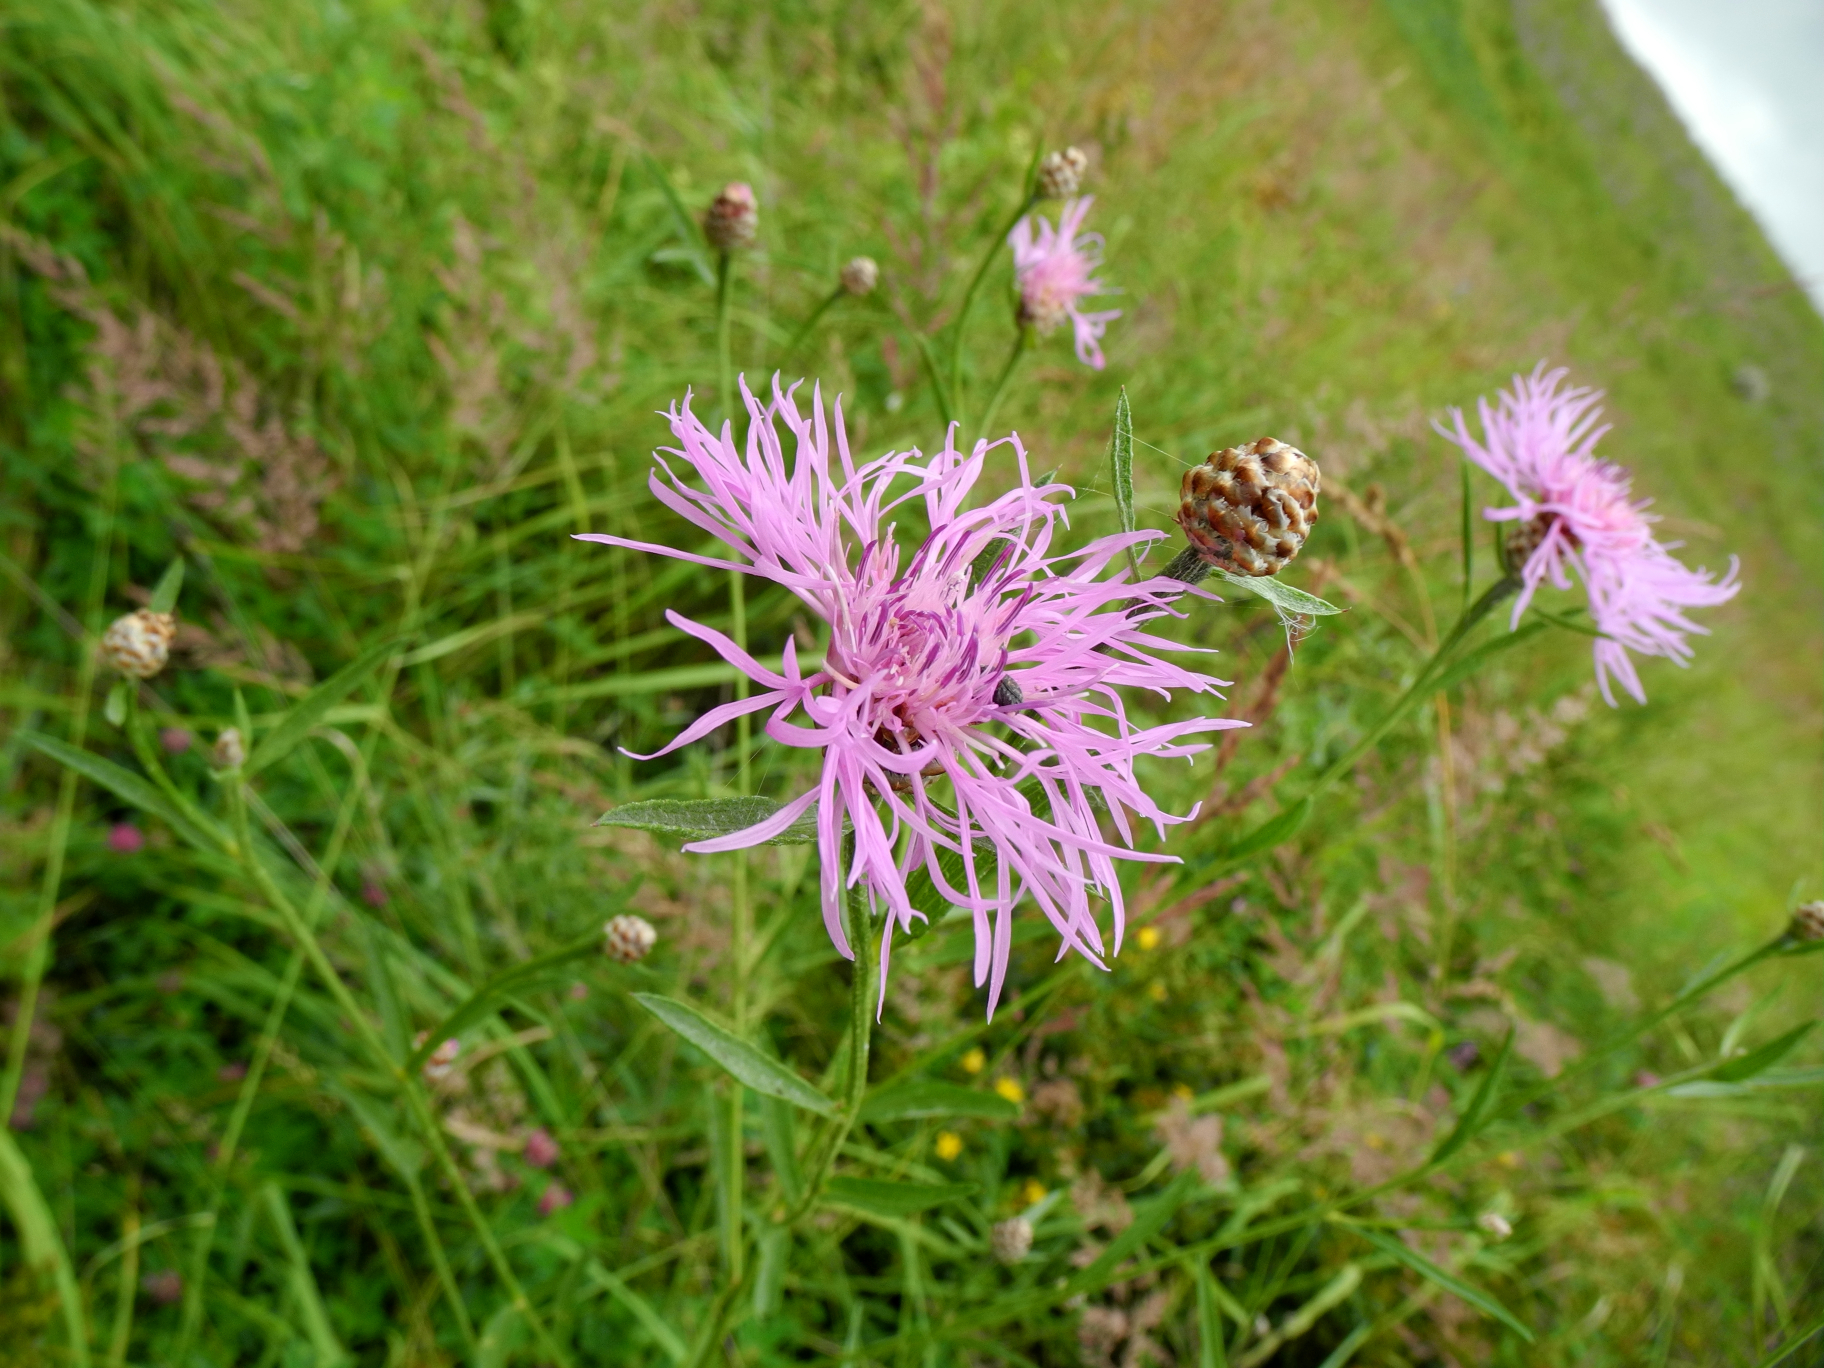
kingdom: Plantae
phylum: Tracheophyta
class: Magnoliopsida
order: Asterales
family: Asteraceae
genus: Centaurea
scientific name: Centaurea jacea
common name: Brown knapweed
